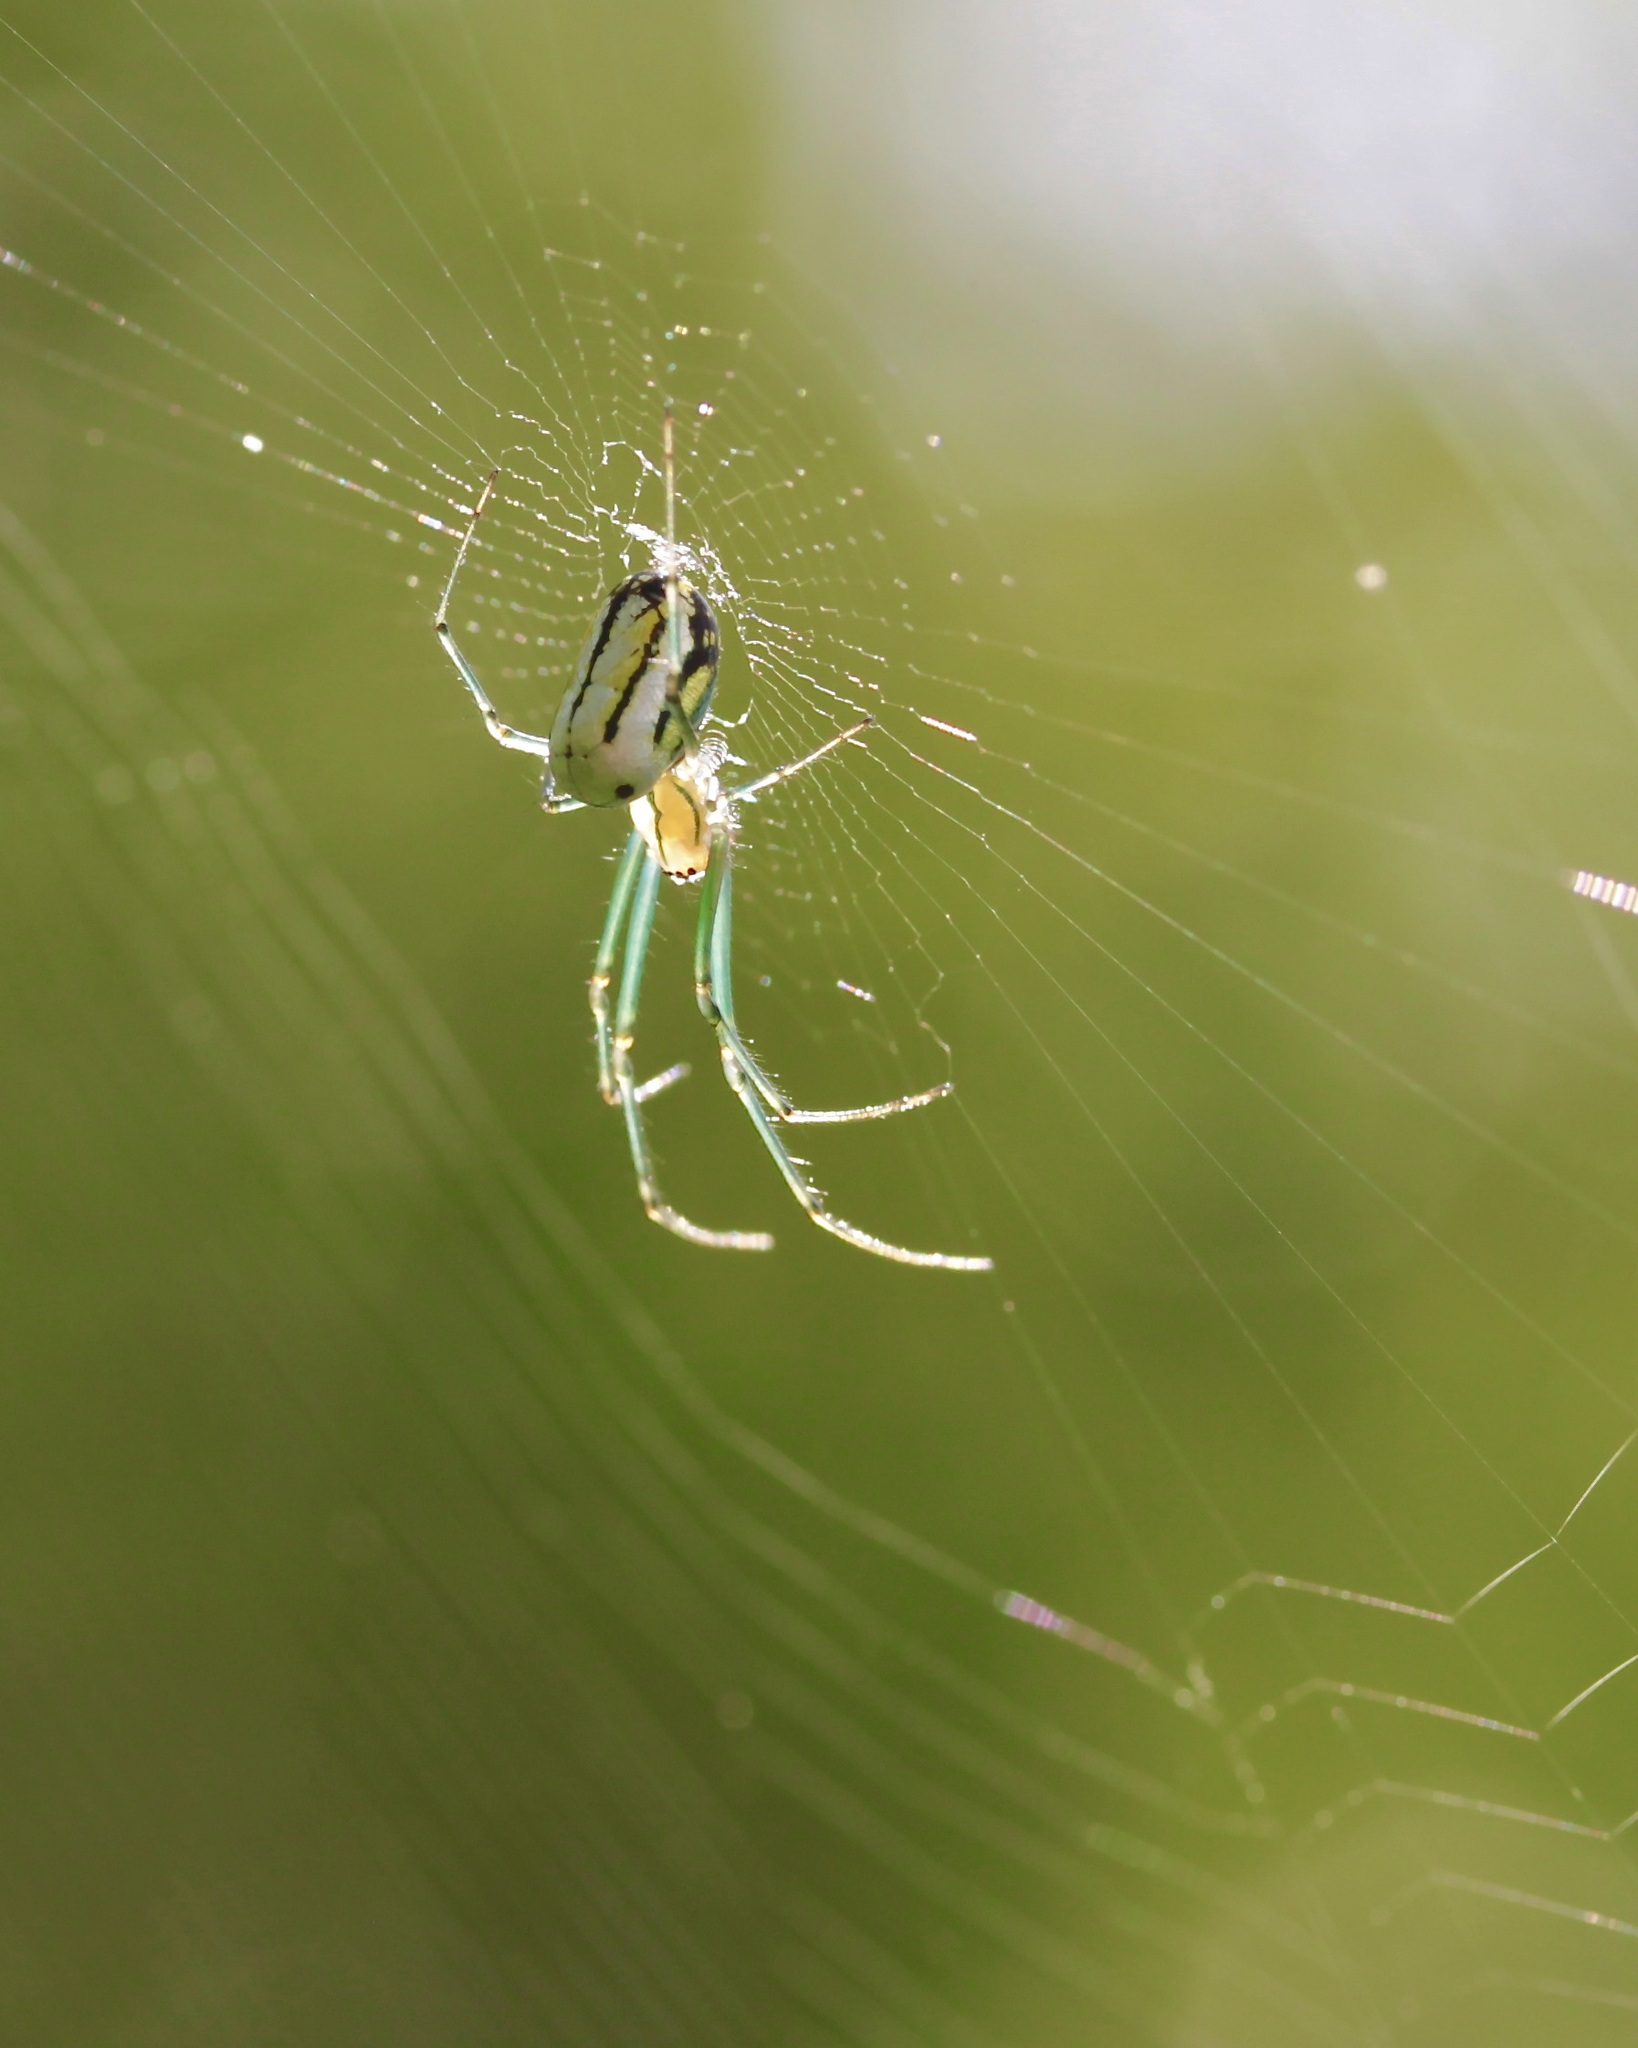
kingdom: Animalia
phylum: Arthropoda
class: Arachnida
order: Araneae
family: Tetragnathidae
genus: Leucauge
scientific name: Leucauge venusta
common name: Longjawed orb weavers
